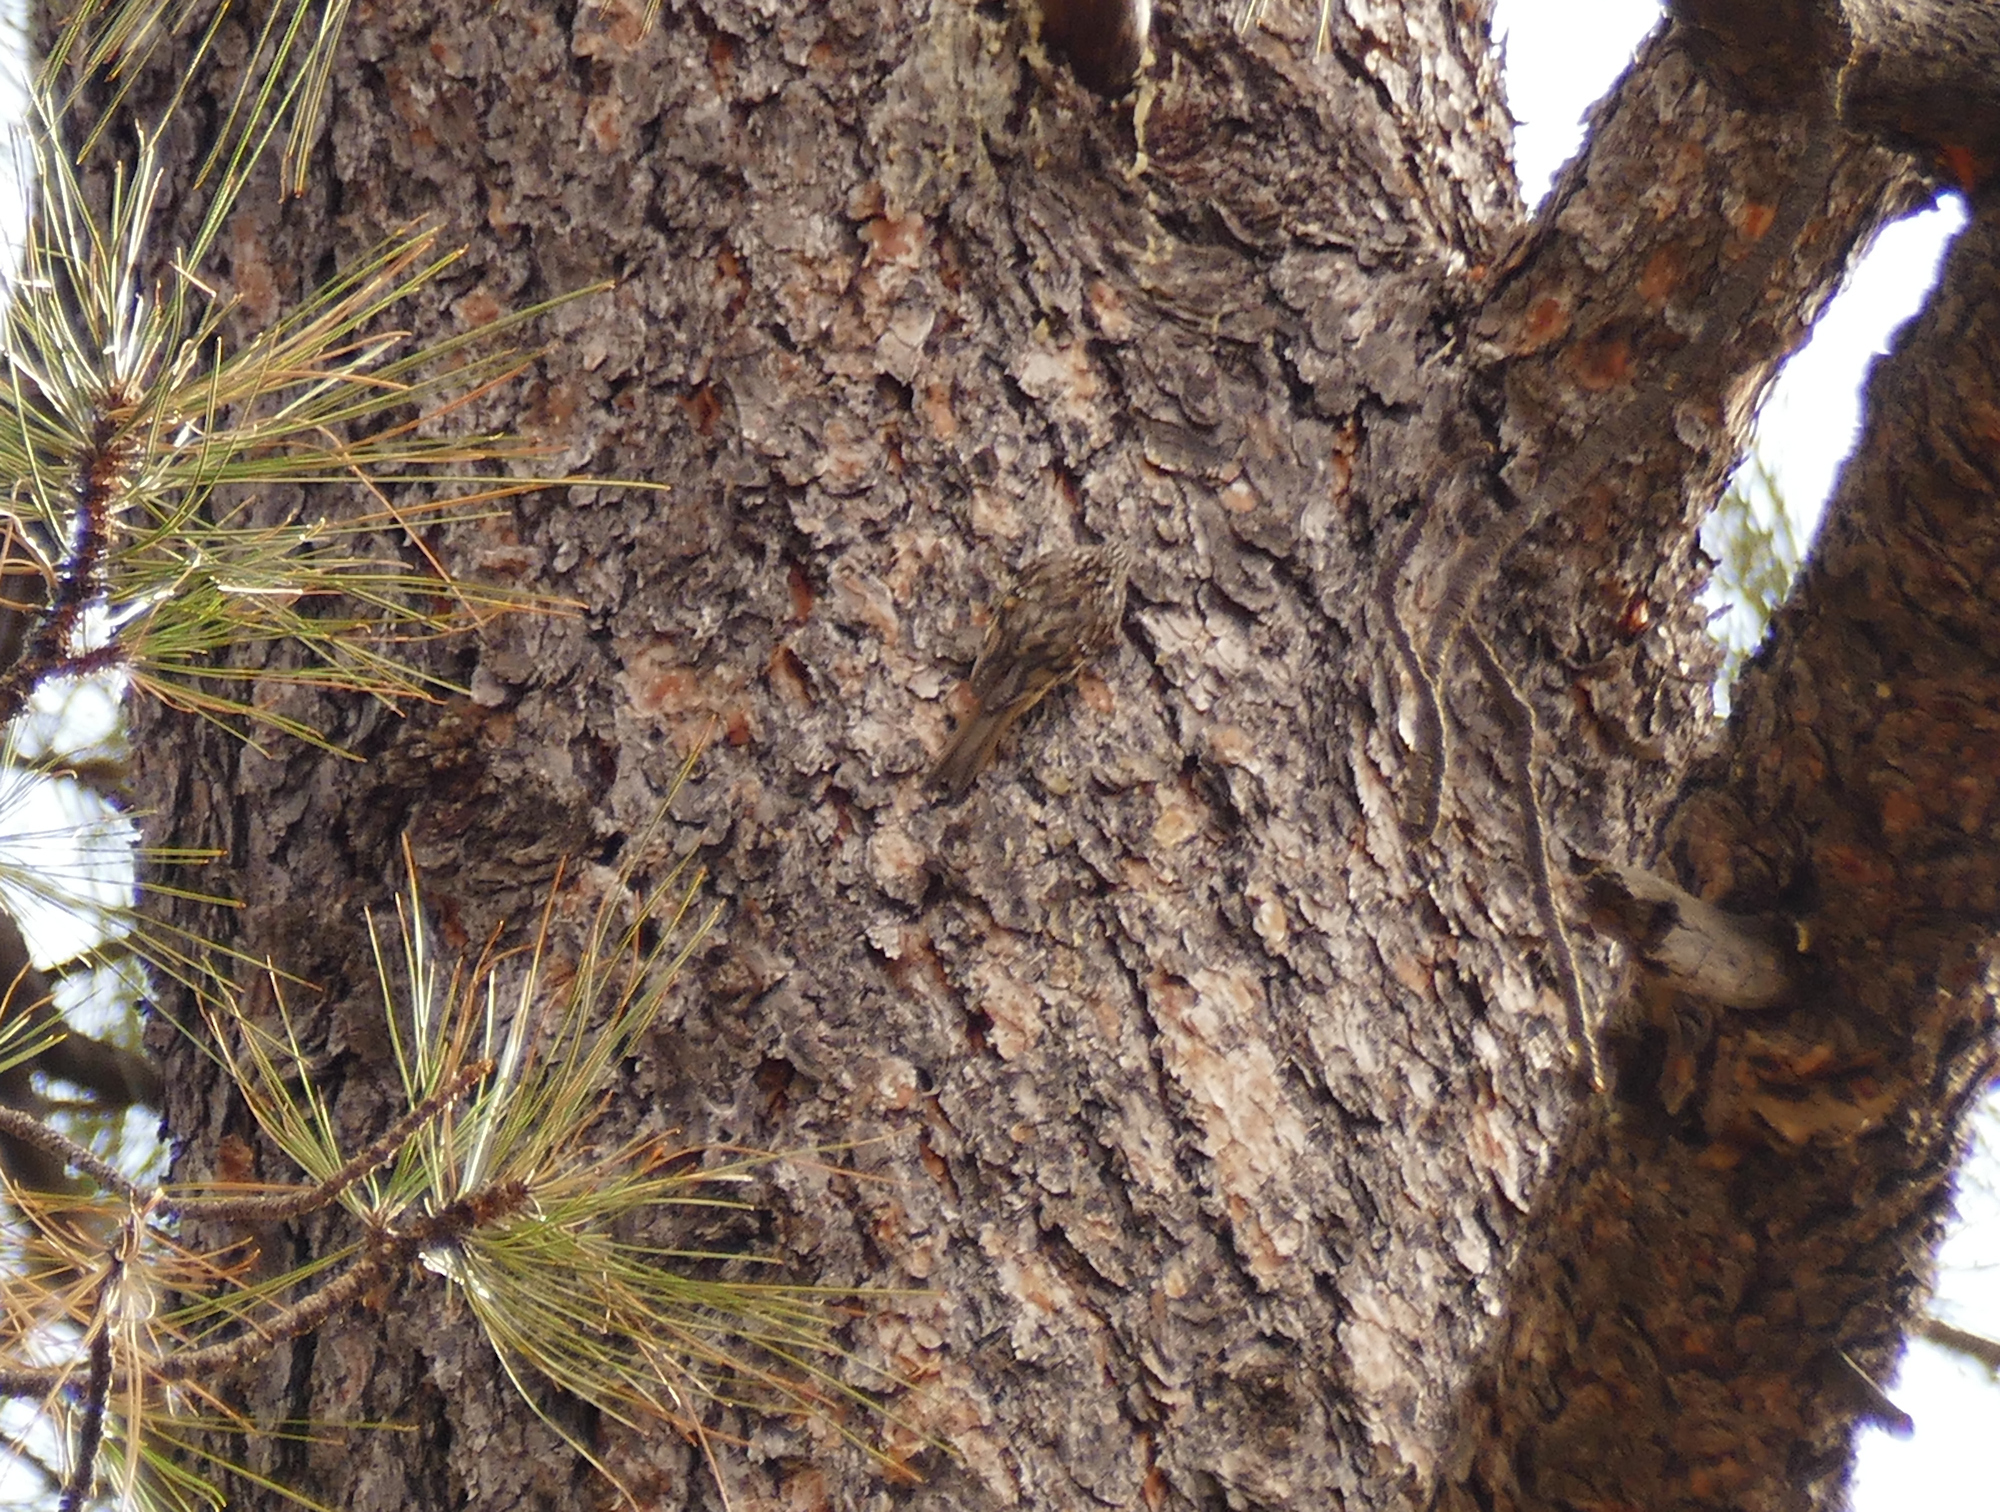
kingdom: Animalia
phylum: Chordata
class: Aves
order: Passeriformes
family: Certhiidae
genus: Certhia
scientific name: Certhia americana
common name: Brown creeper
